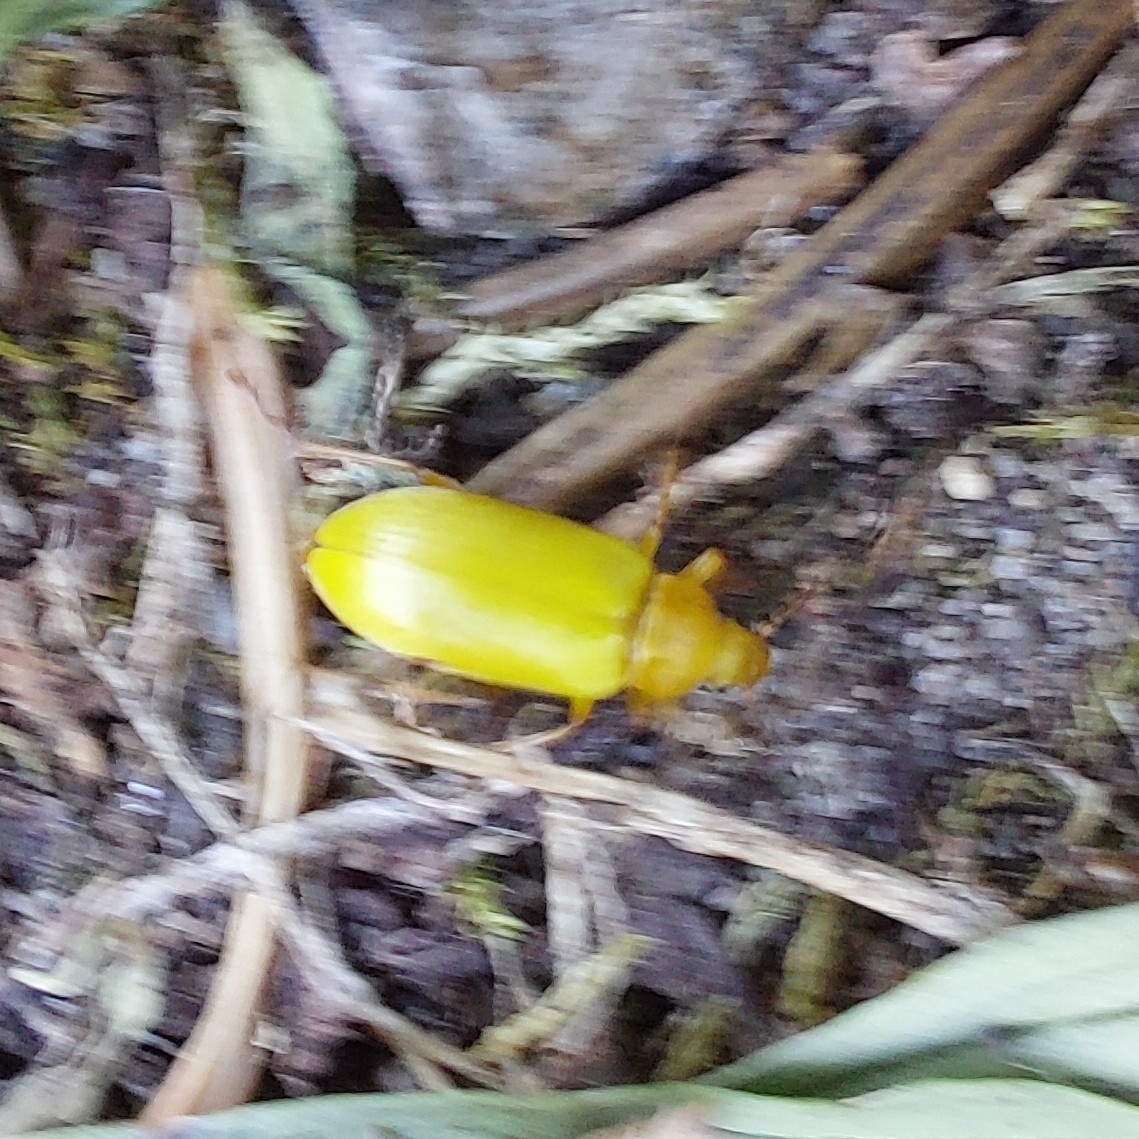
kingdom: Animalia
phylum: Arthropoda
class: Insecta
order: Coleoptera
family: Tenebrionidae
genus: Cteniopus
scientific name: Cteniopus sulphureus
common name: Sulphur beetle
